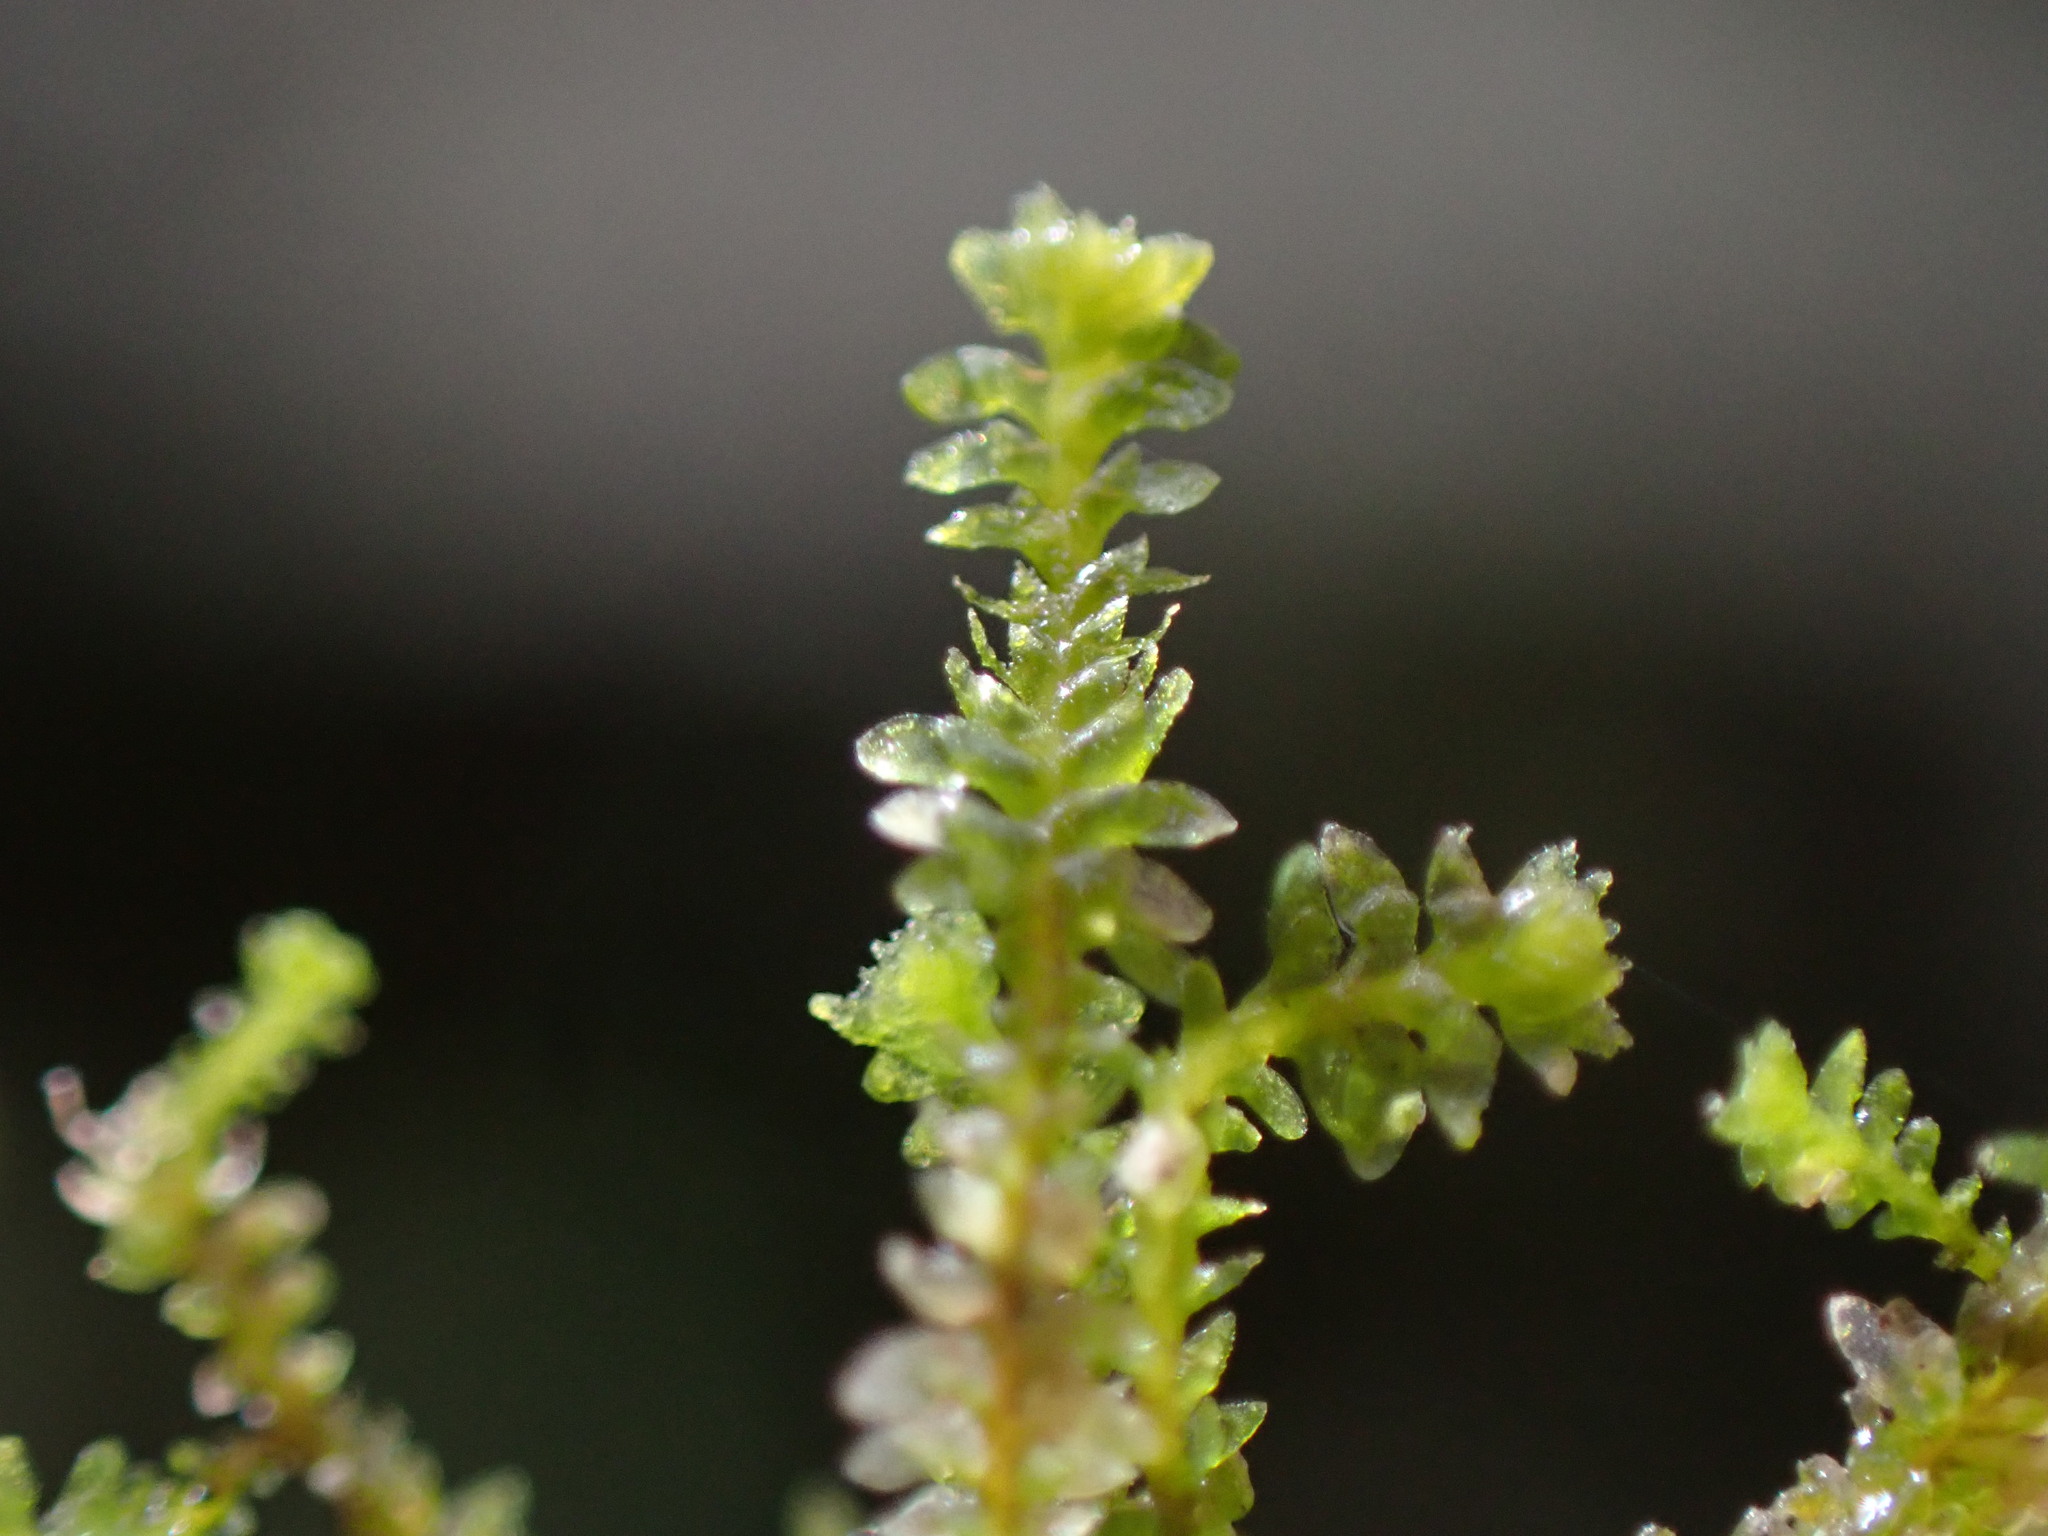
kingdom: Plantae
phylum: Marchantiophyta
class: Jungermanniopsida
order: Jungermanniales
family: Scapaniaceae
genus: Diplophyllum
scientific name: Diplophyllum taxifolium
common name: Alpine earwort
